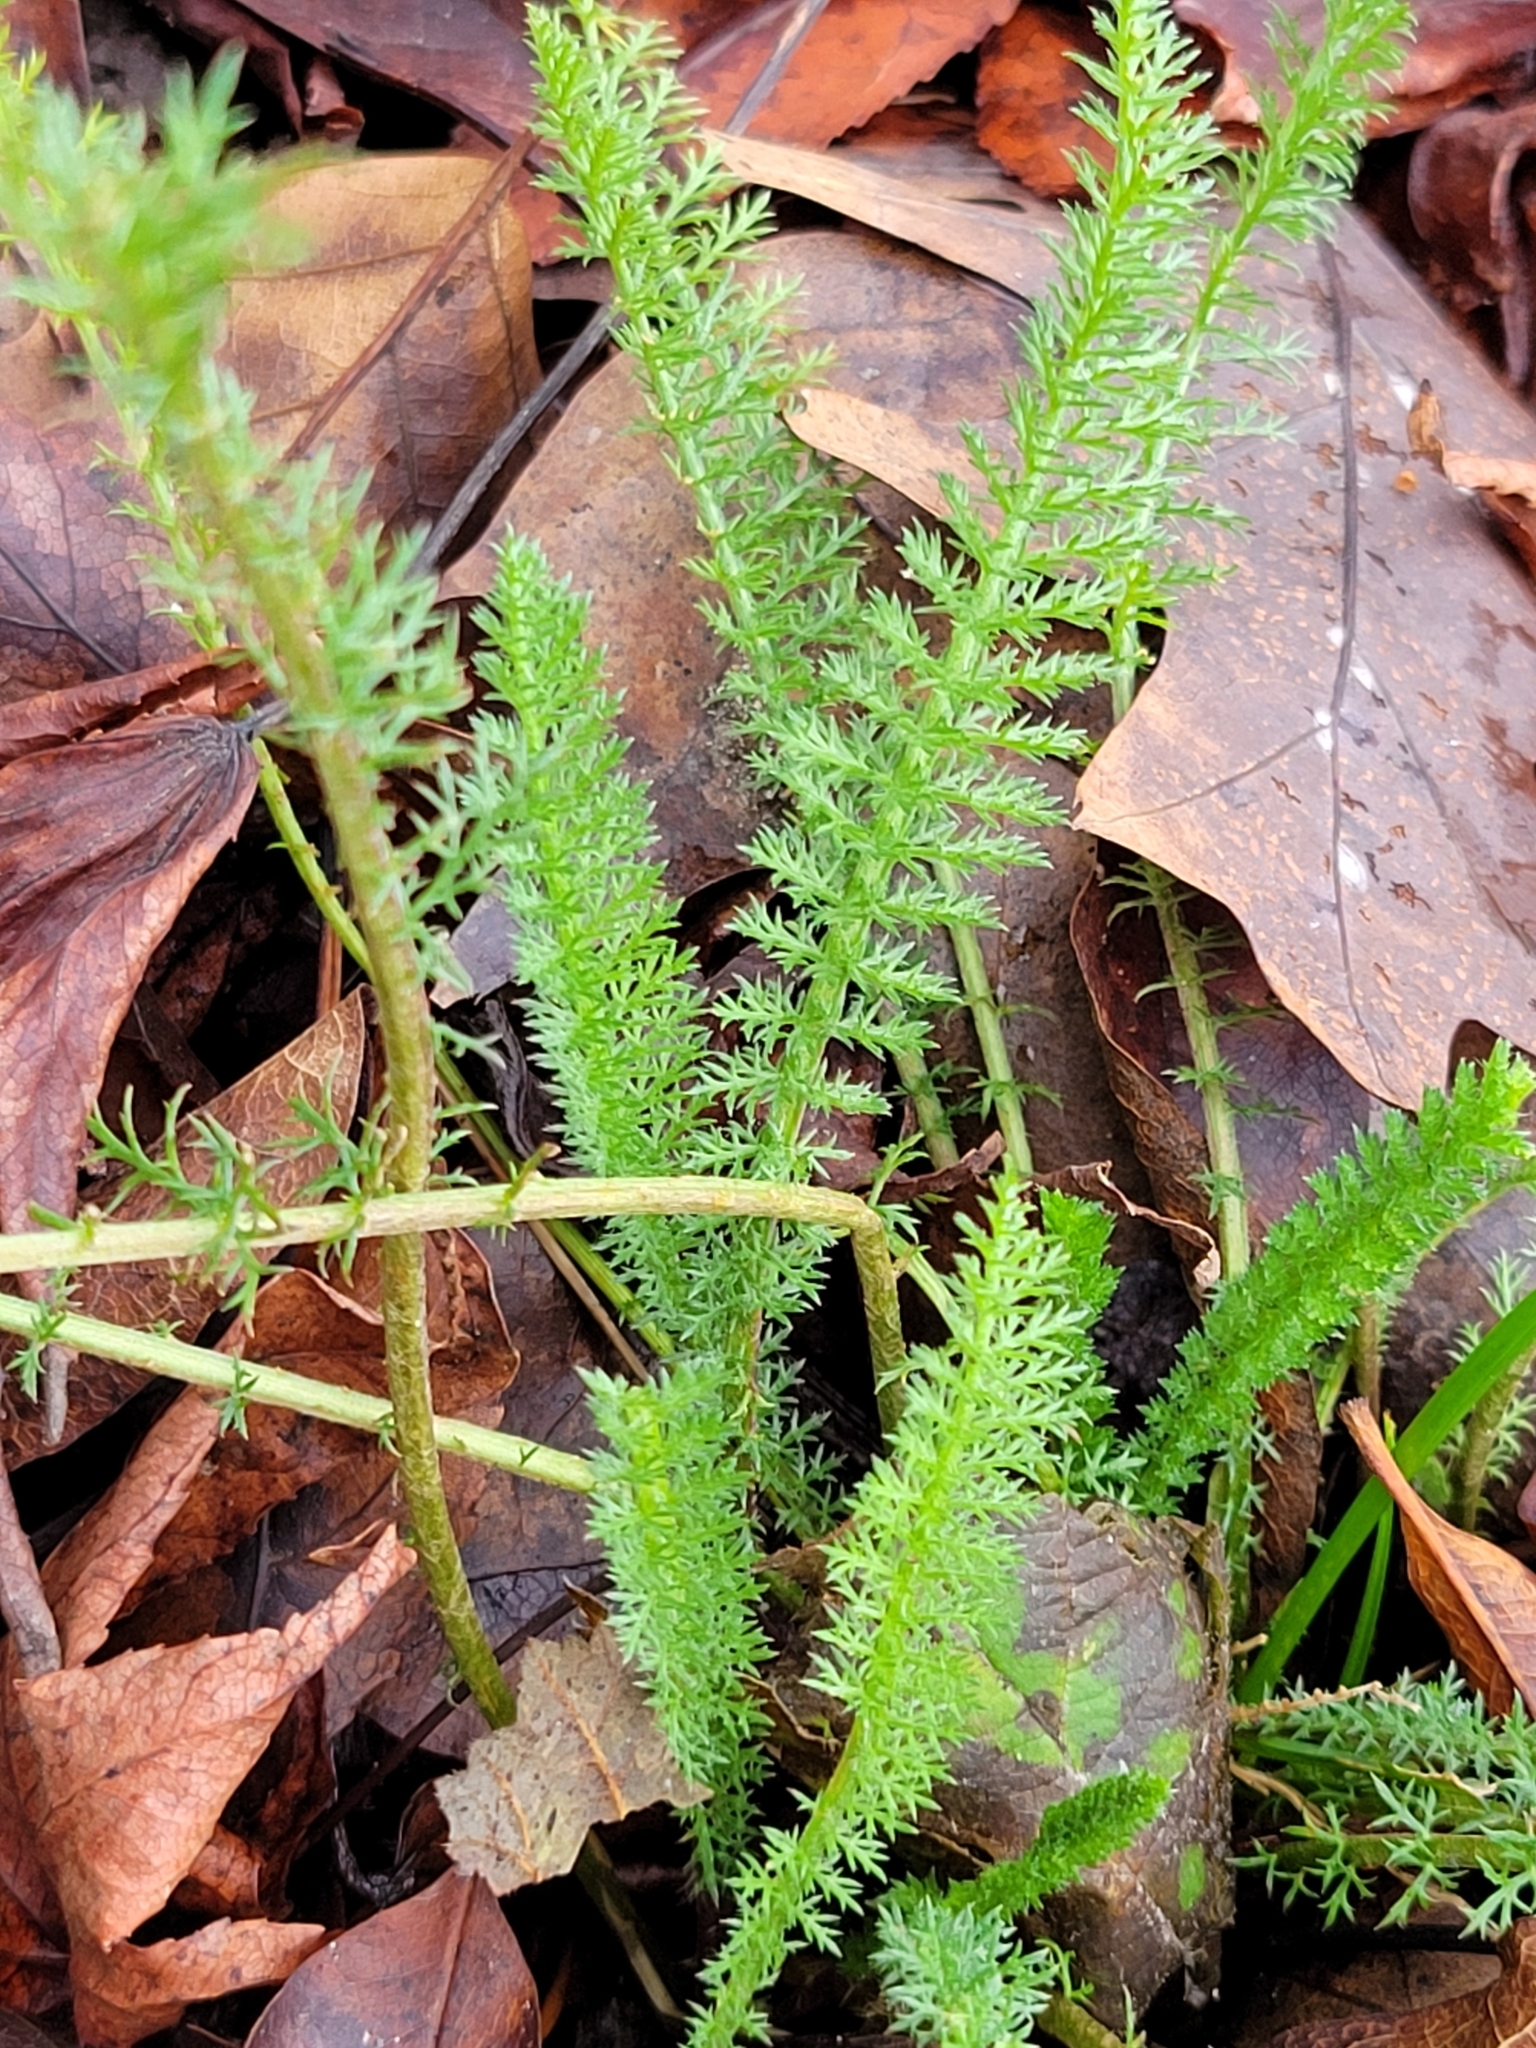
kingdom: Plantae
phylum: Tracheophyta
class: Magnoliopsida
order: Asterales
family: Asteraceae
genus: Achillea
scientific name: Achillea millefolium
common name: Yarrow
